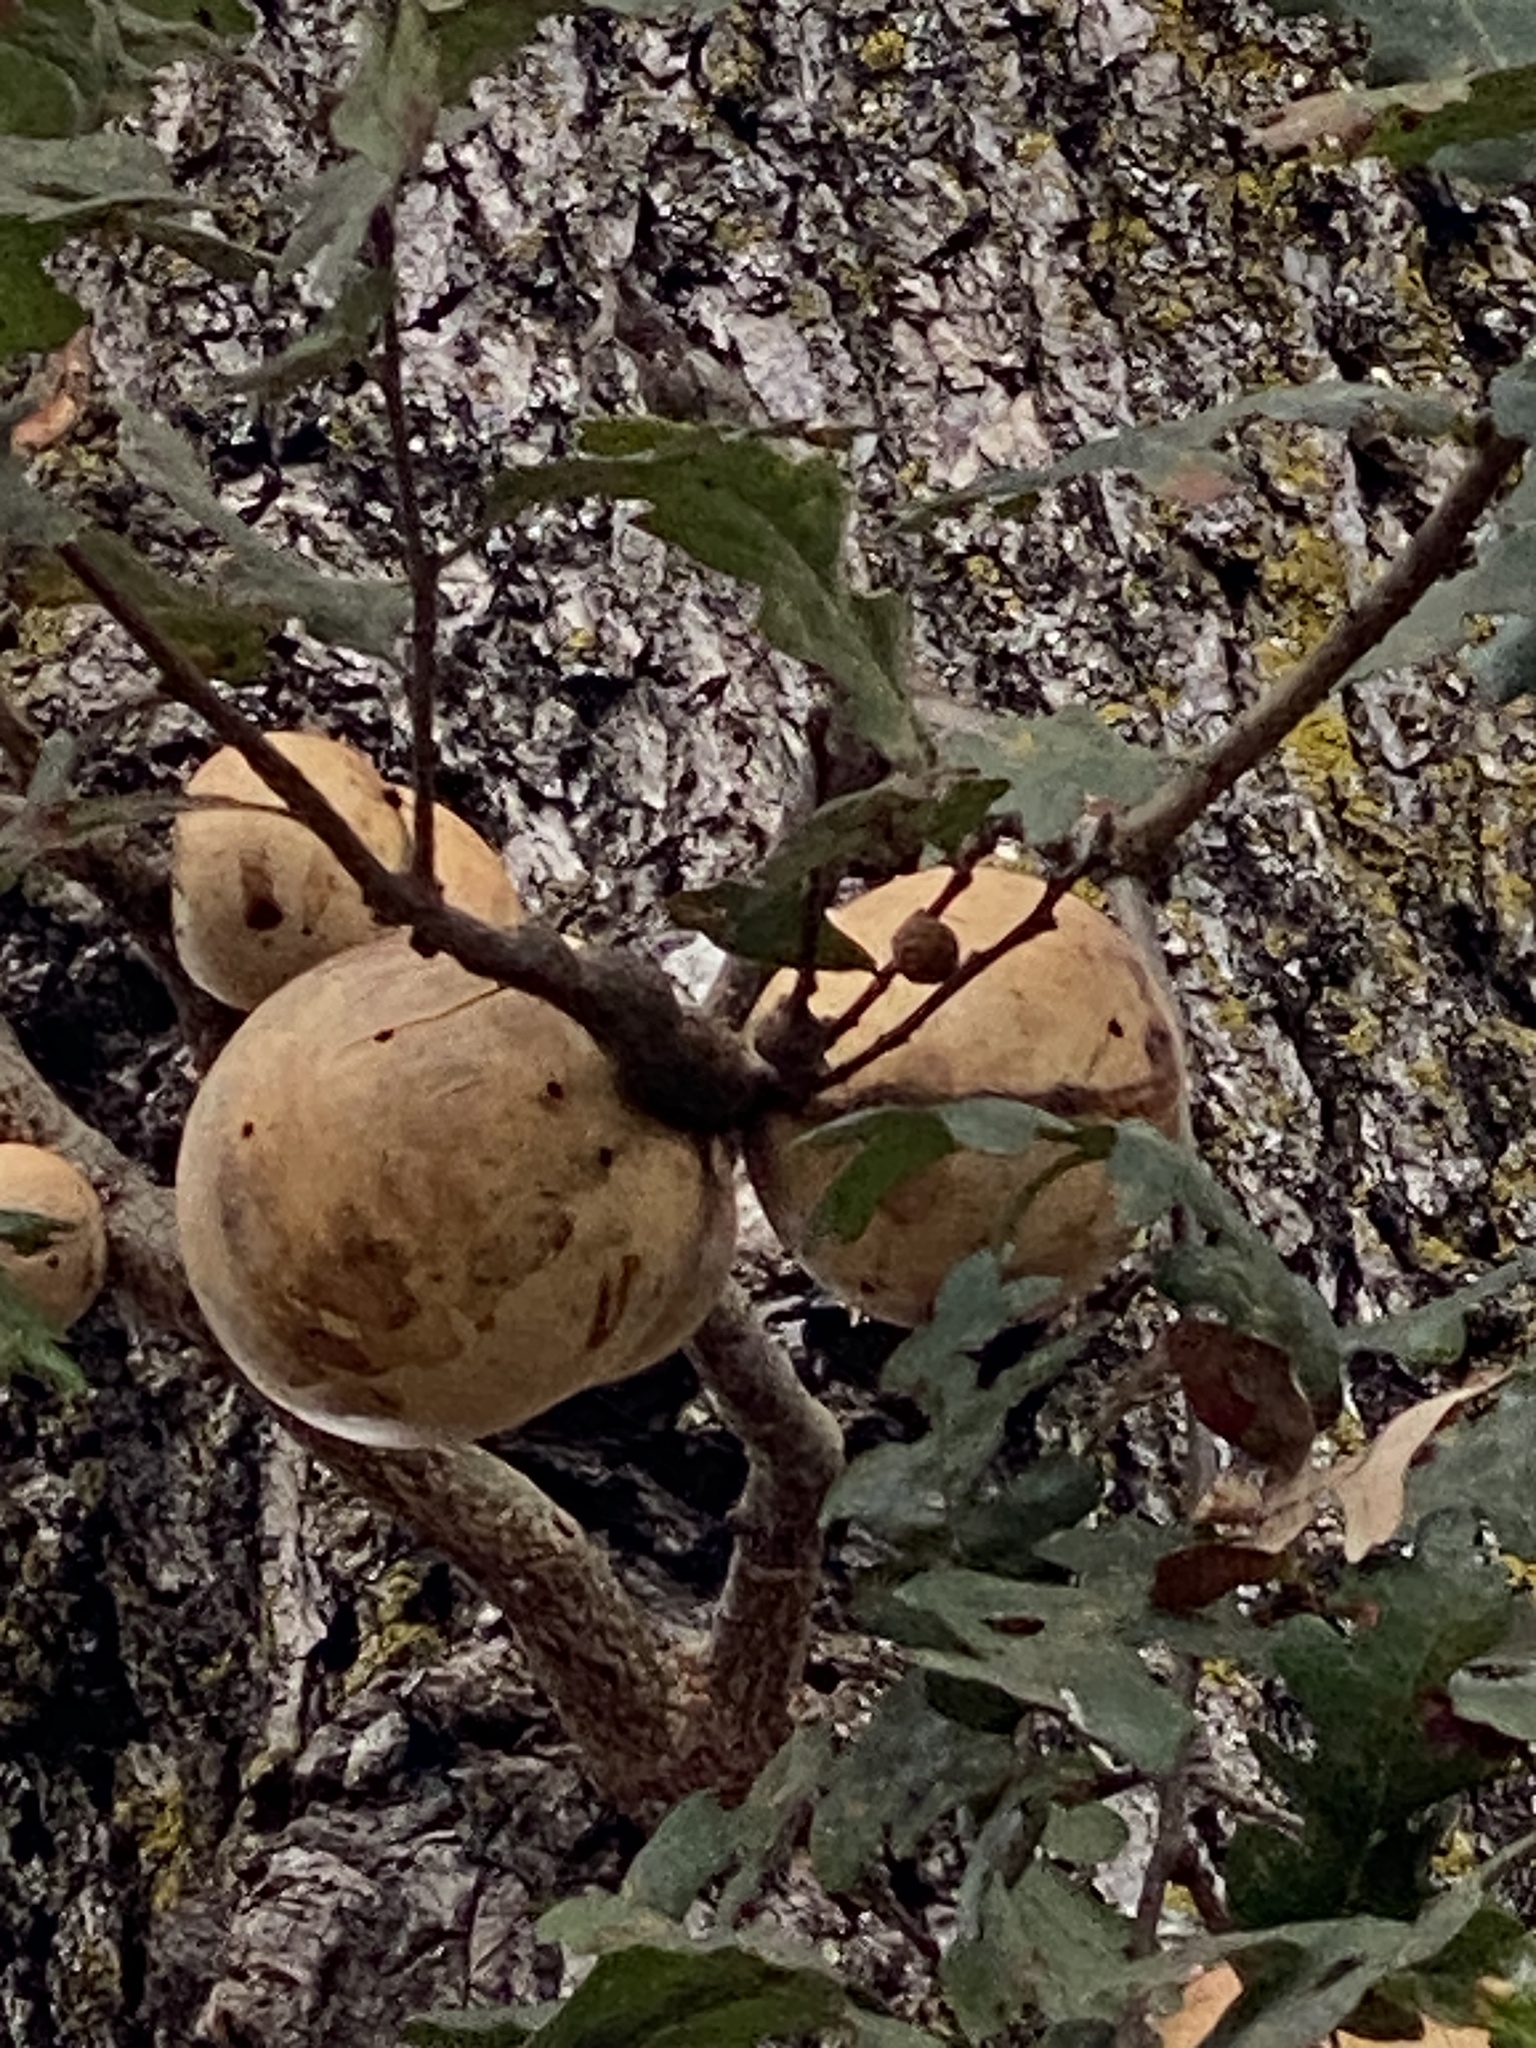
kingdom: Animalia
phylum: Arthropoda
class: Insecta
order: Hymenoptera
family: Cynipidae
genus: Andricus
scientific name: Andricus quercuscalifornicus
